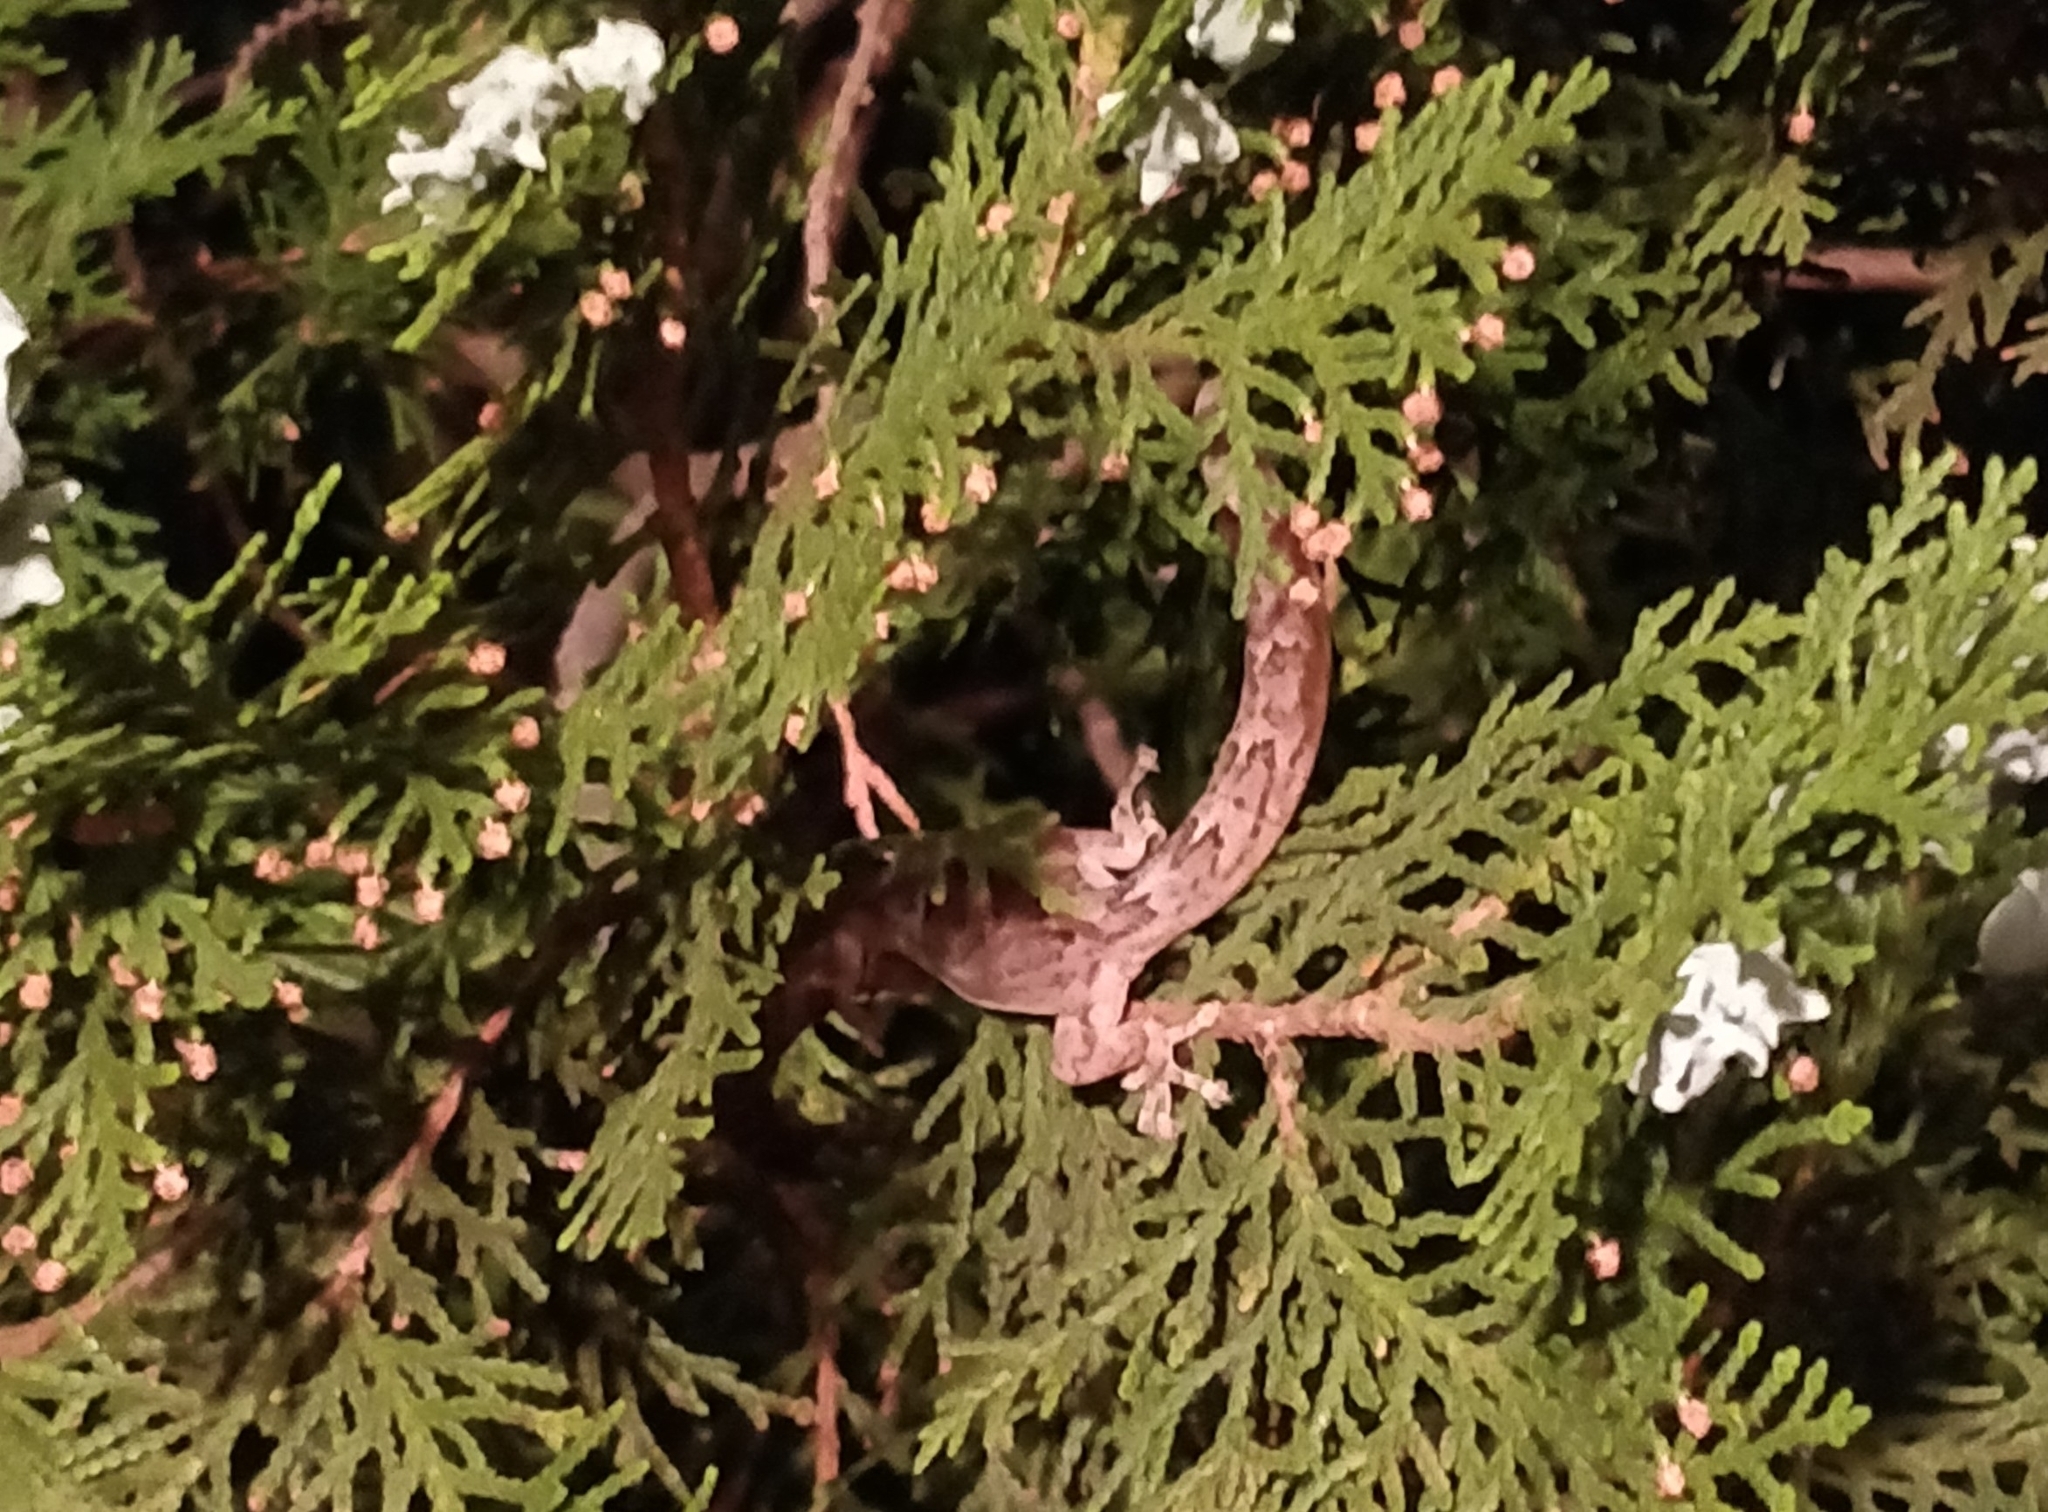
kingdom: Animalia
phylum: Chordata
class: Squamata
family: Gekkonidae
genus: Christinus
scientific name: Christinus marmoratus
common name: Marbled gecko
